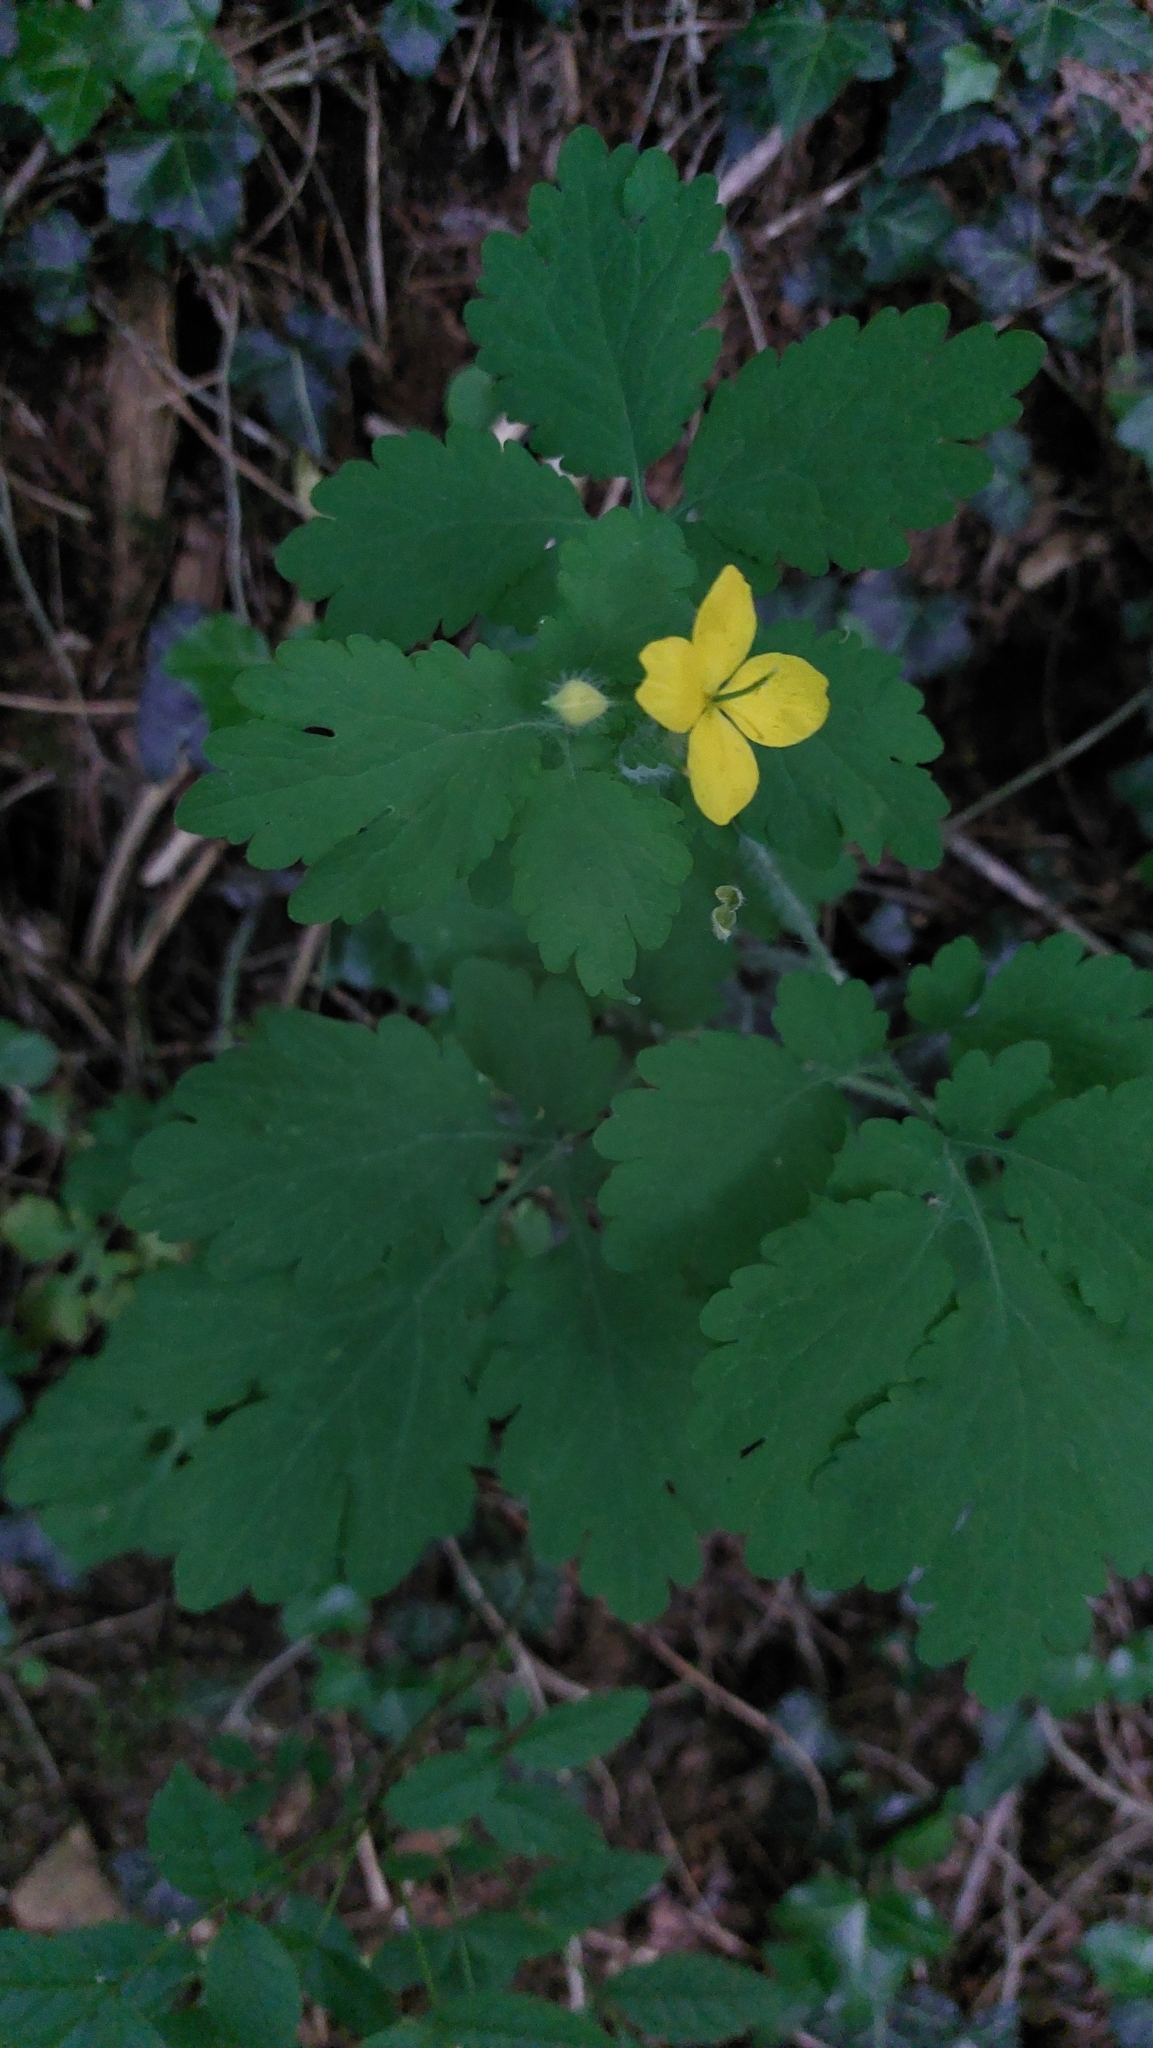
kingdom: Plantae
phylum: Tracheophyta
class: Magnoliopsida
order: Ranunculales
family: Papaveraceae
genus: Chelidonium
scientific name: Chelidonium majus
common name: Greater celandine
